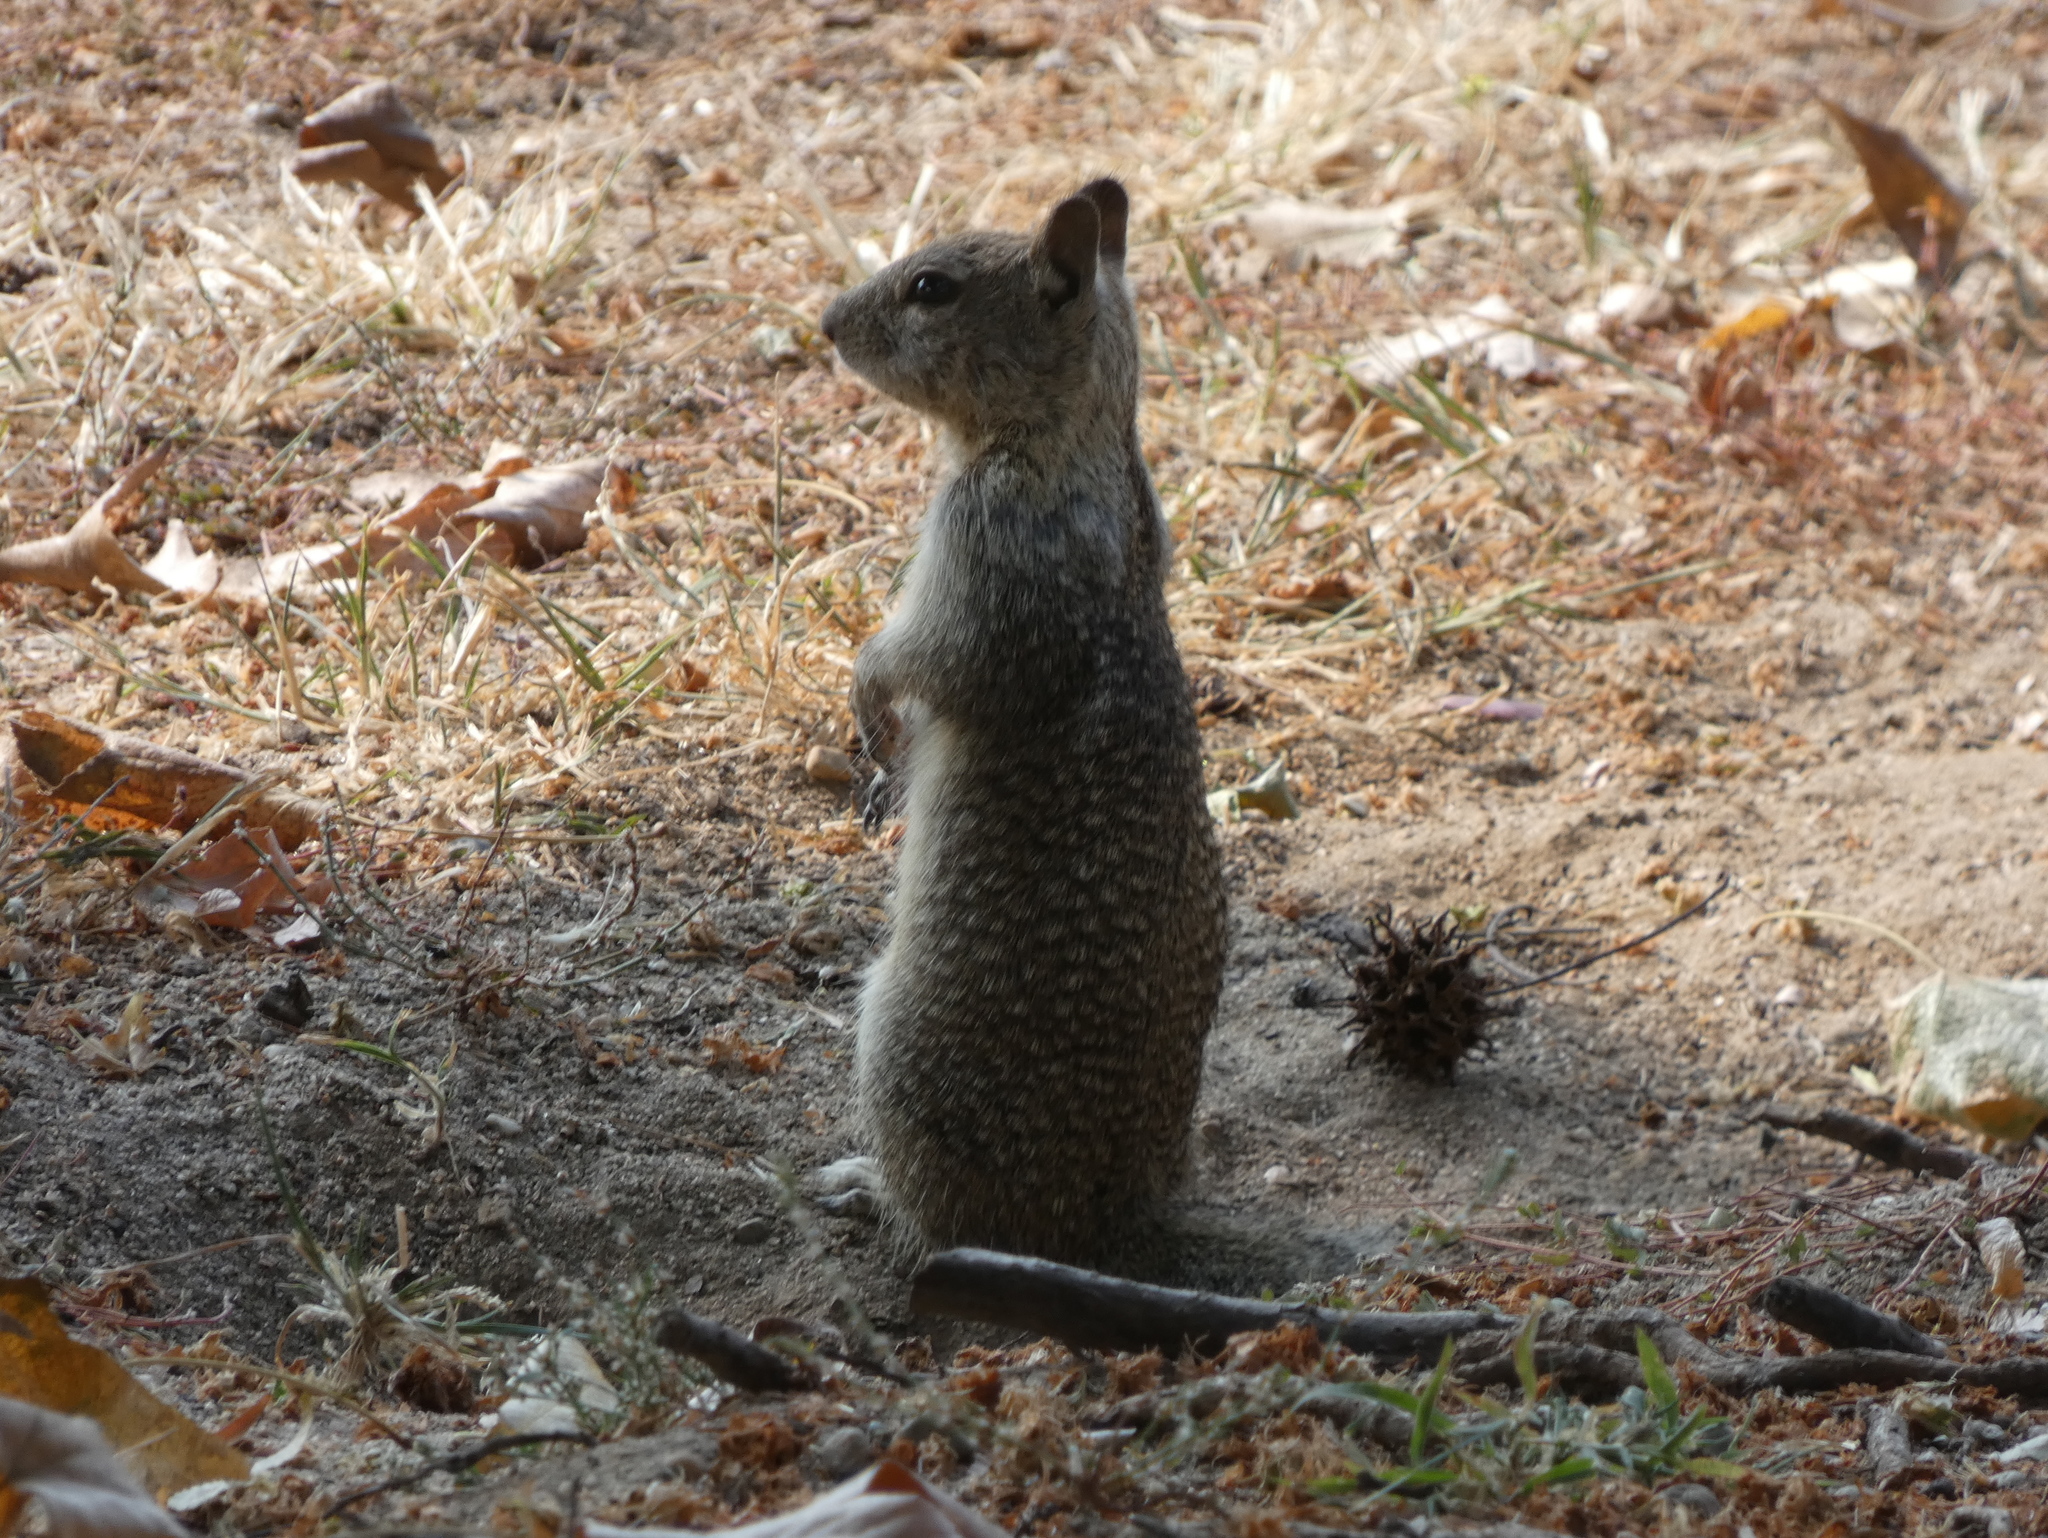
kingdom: Animalia
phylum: Chordata
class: Mammalia
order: Rodentia
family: Sciuridae
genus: Otospermophilus
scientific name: Otospermophilus beecheyi
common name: California ground squirrel
